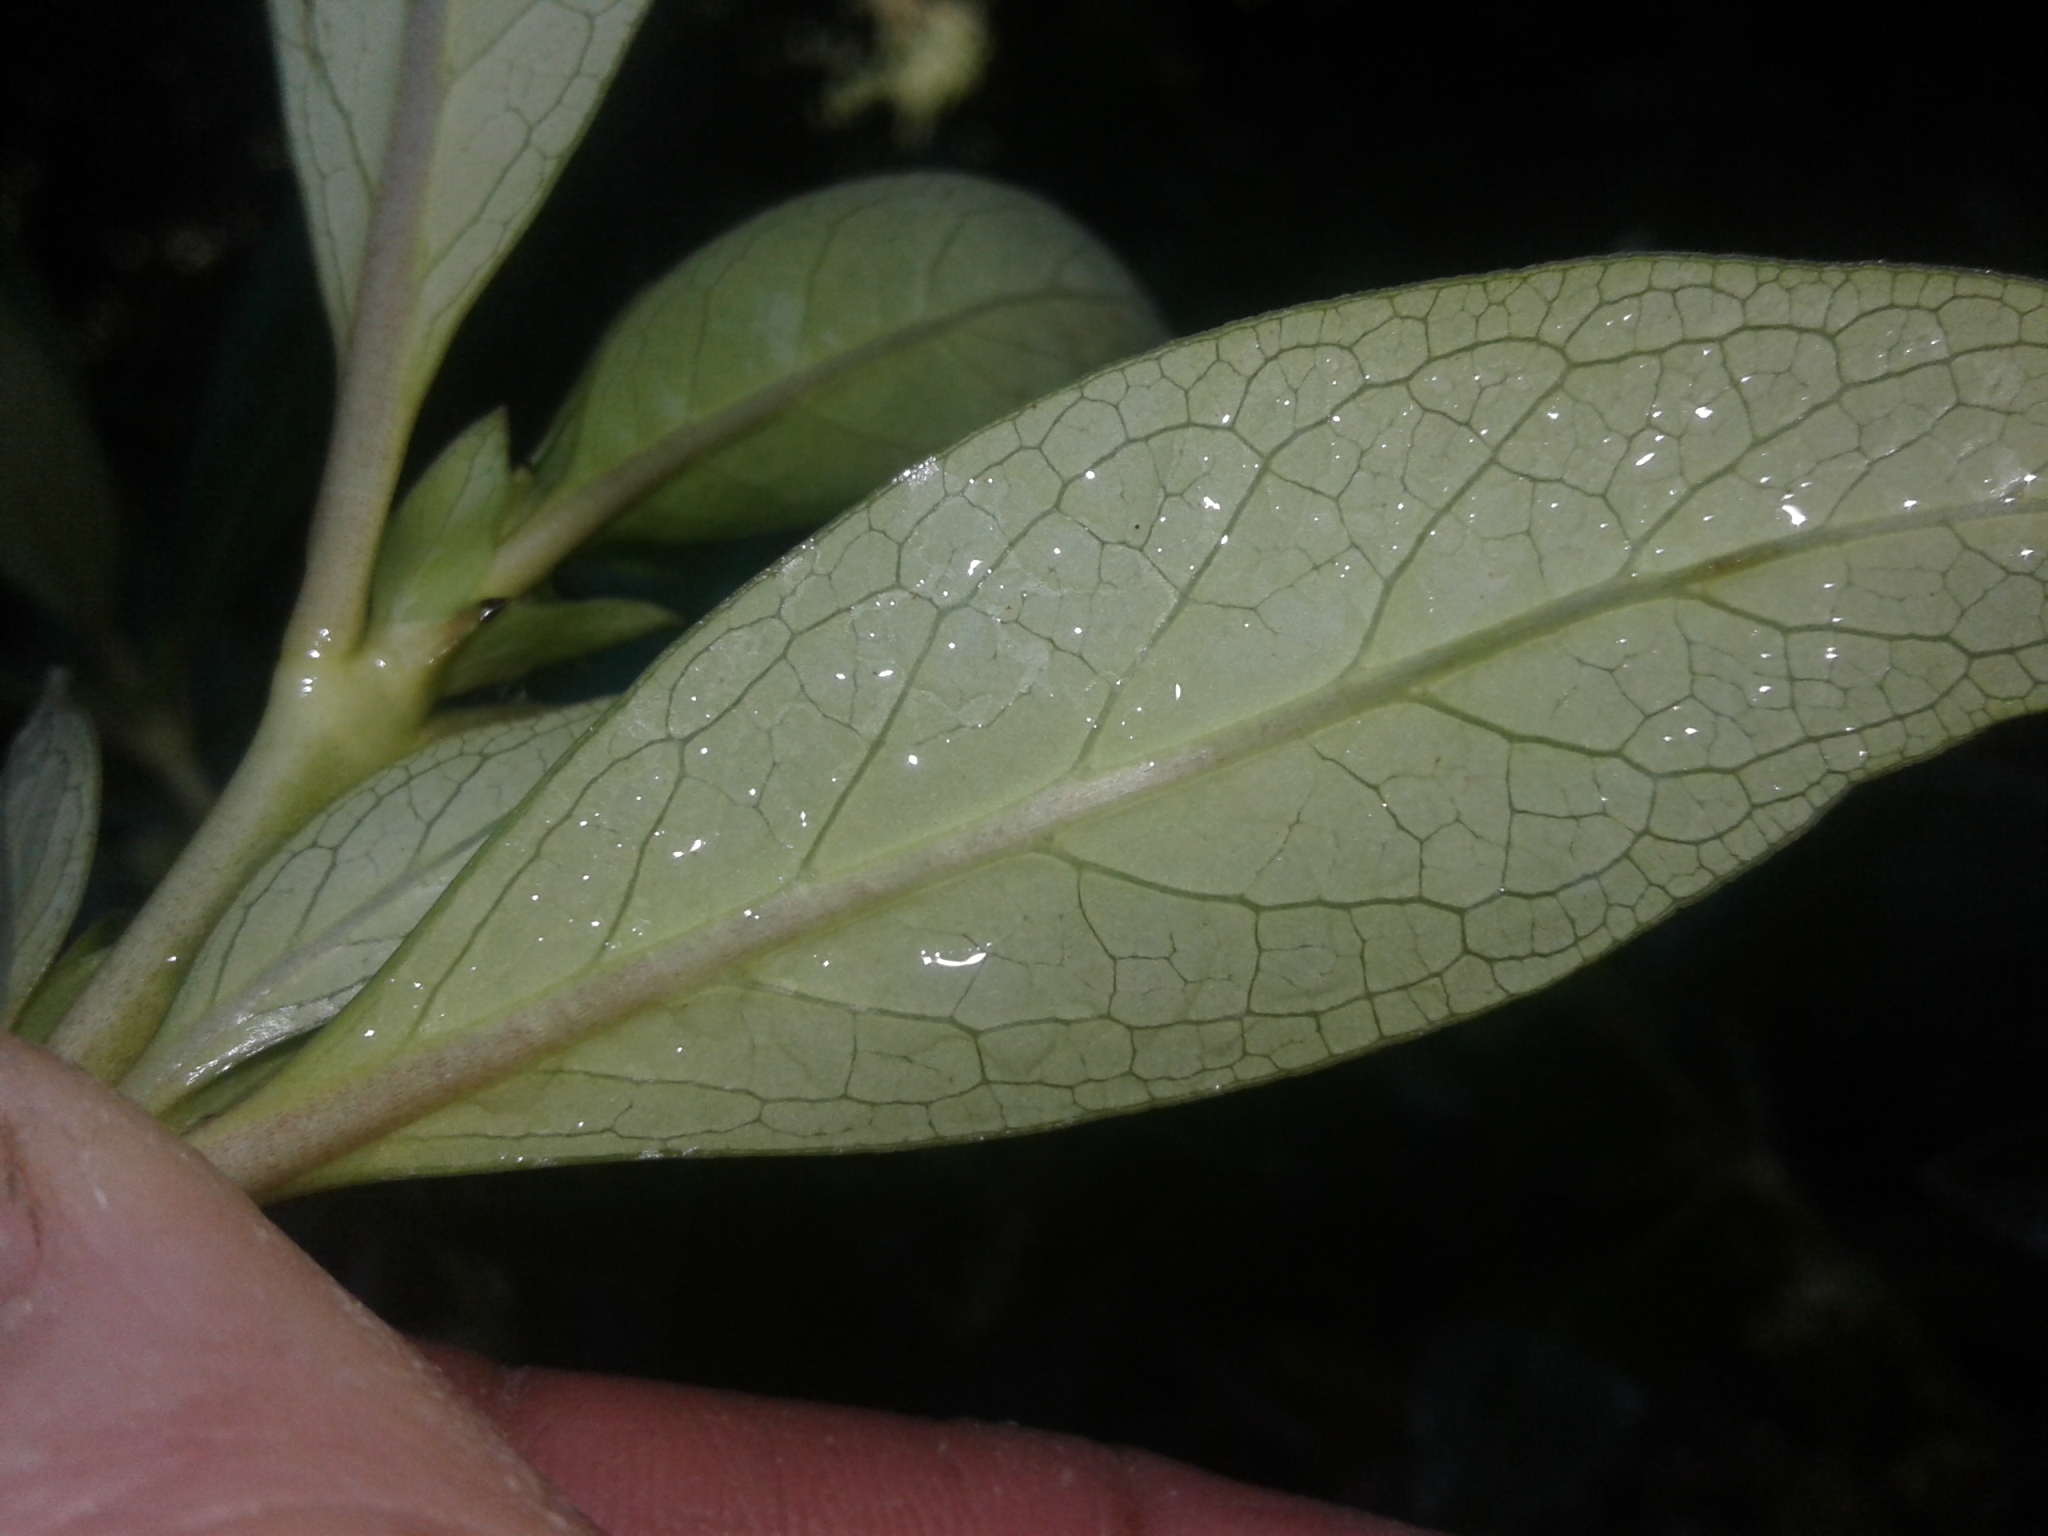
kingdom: Plantae
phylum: Tracheophyta
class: Magnoliopsida
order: Gentianales
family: Rubiaceae
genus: Coprosma
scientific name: Coprosma robusta
